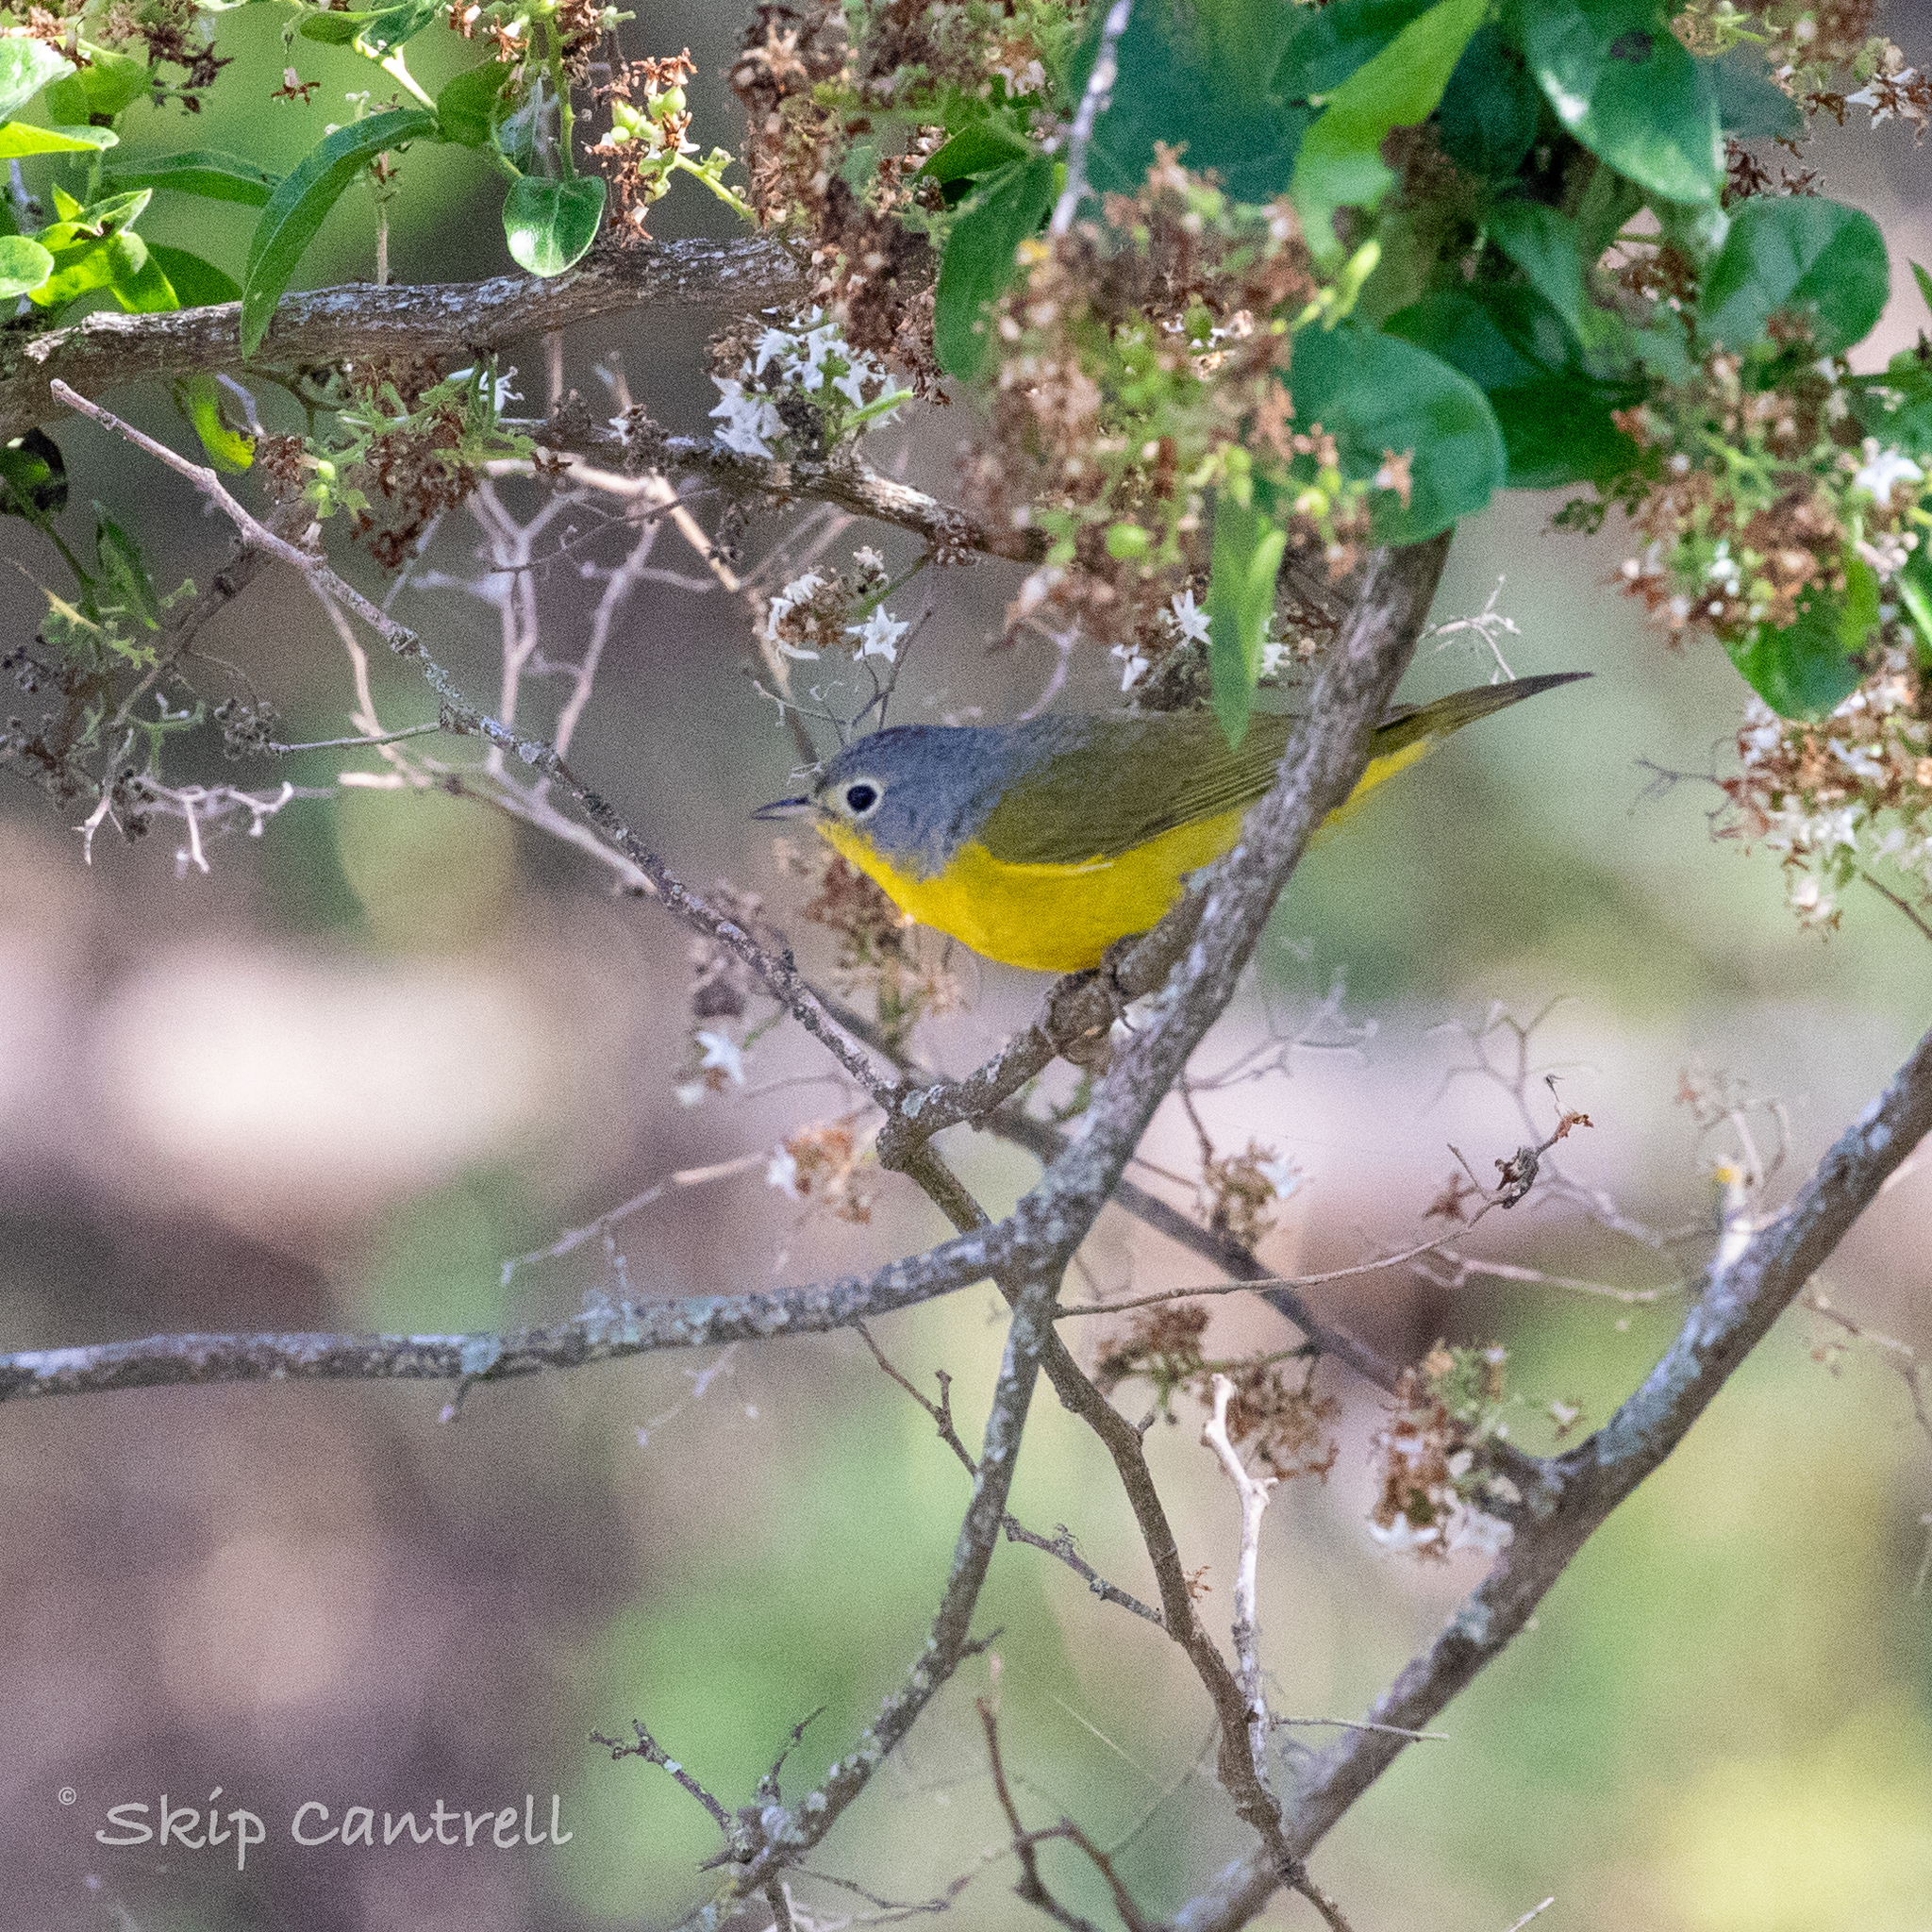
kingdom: Animalia
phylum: Chordata
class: Aves
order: Passeriformes
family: Parulidae
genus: Leiothlypis
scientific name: Leiothlypis ruficapilla
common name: Nashville warbler
